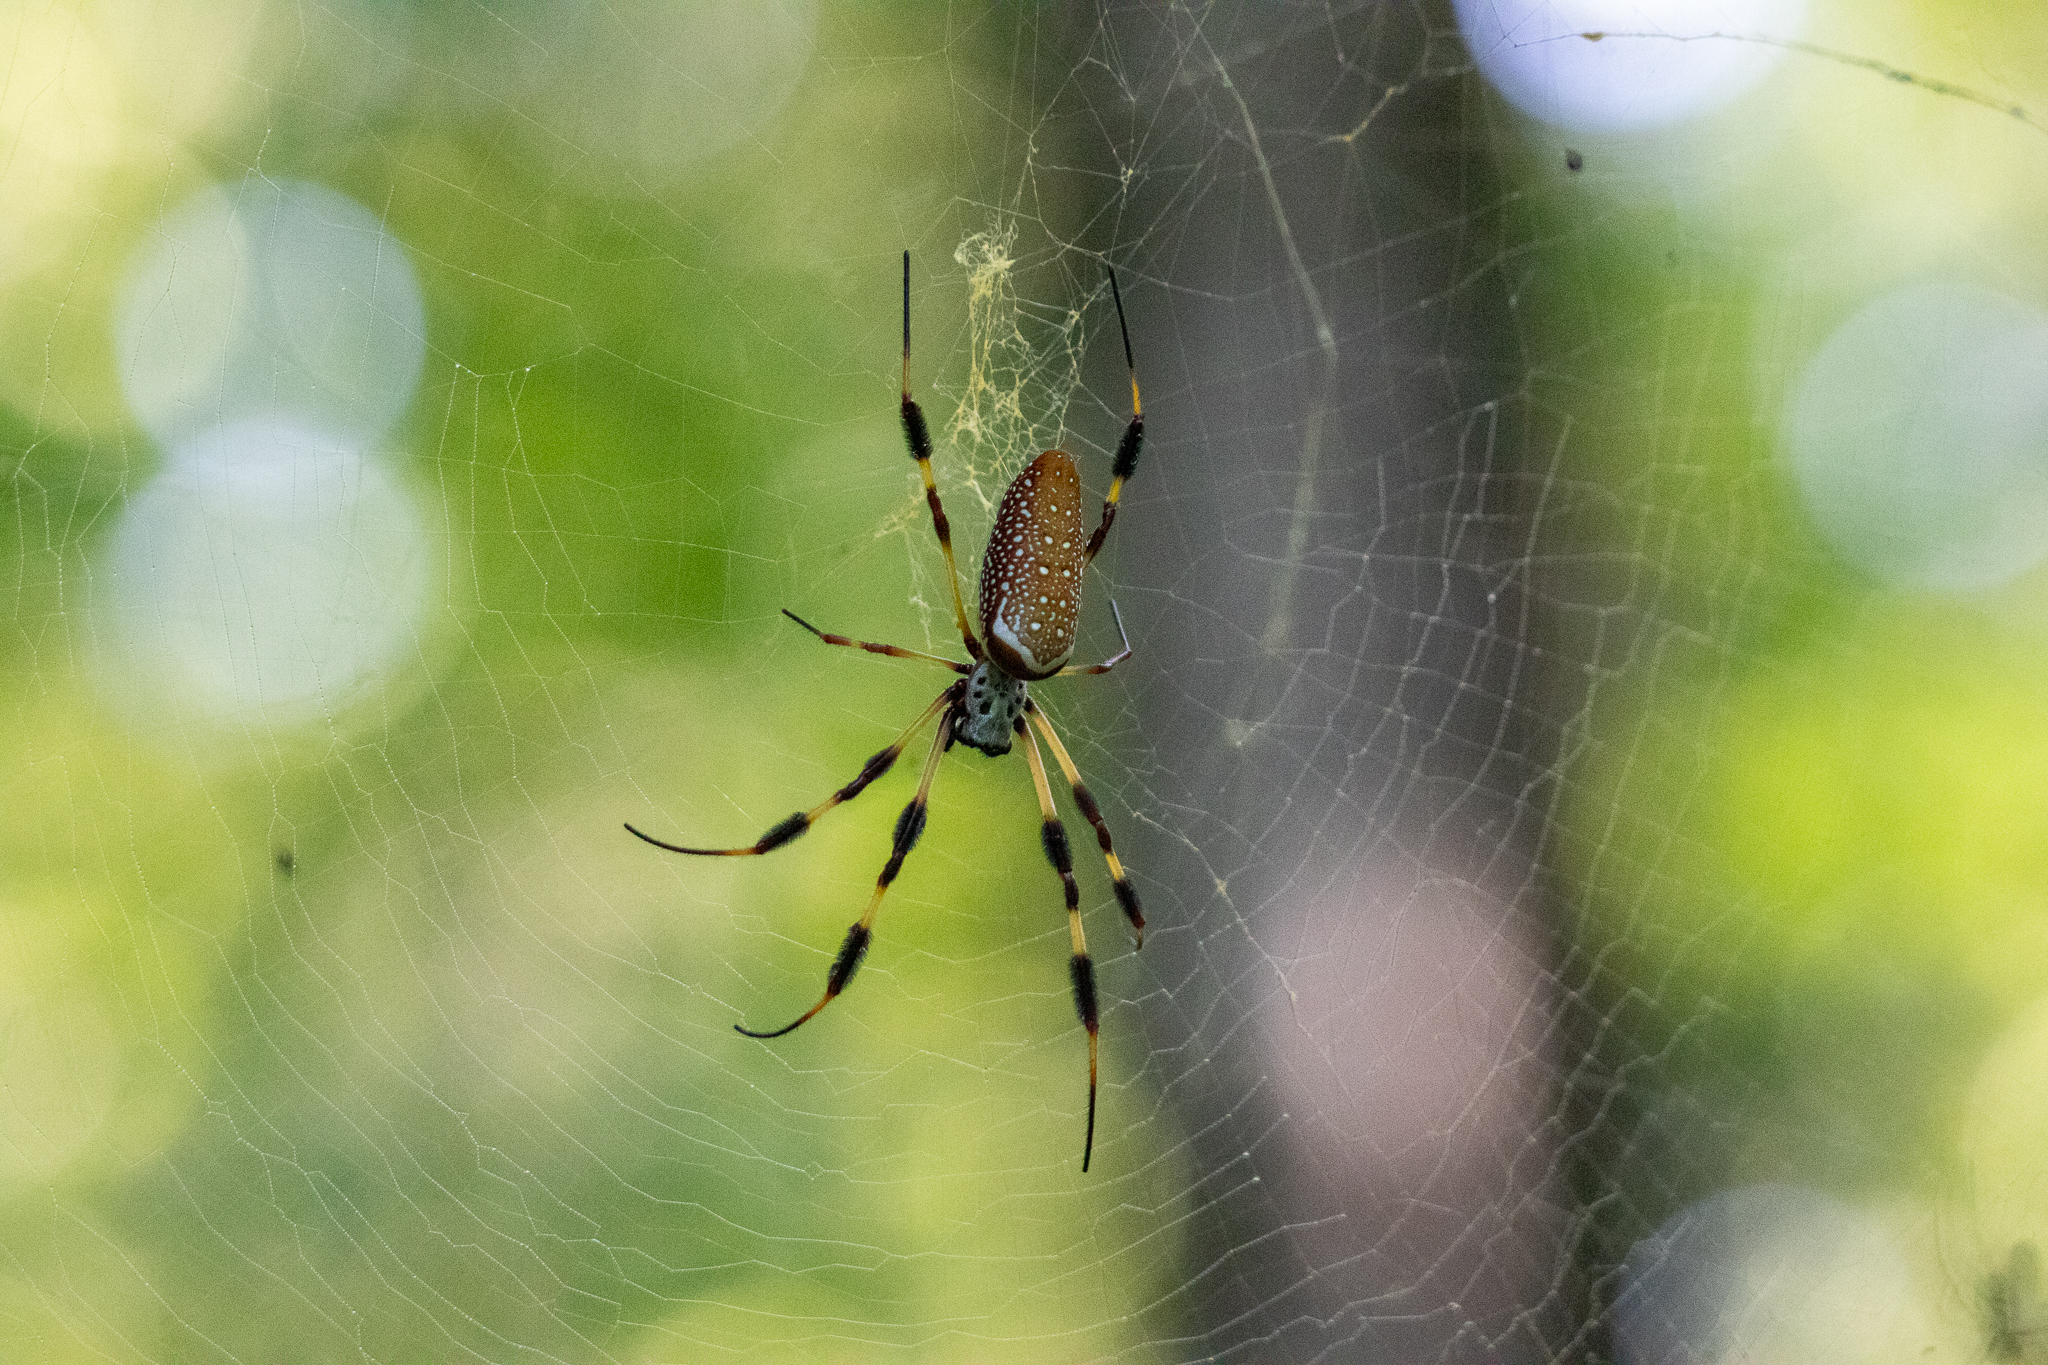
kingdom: Animalia
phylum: Arthropoda
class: Arachnida
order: Araneae
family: Araneidae
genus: Trichonephila
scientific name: Trichonephila clavipes
